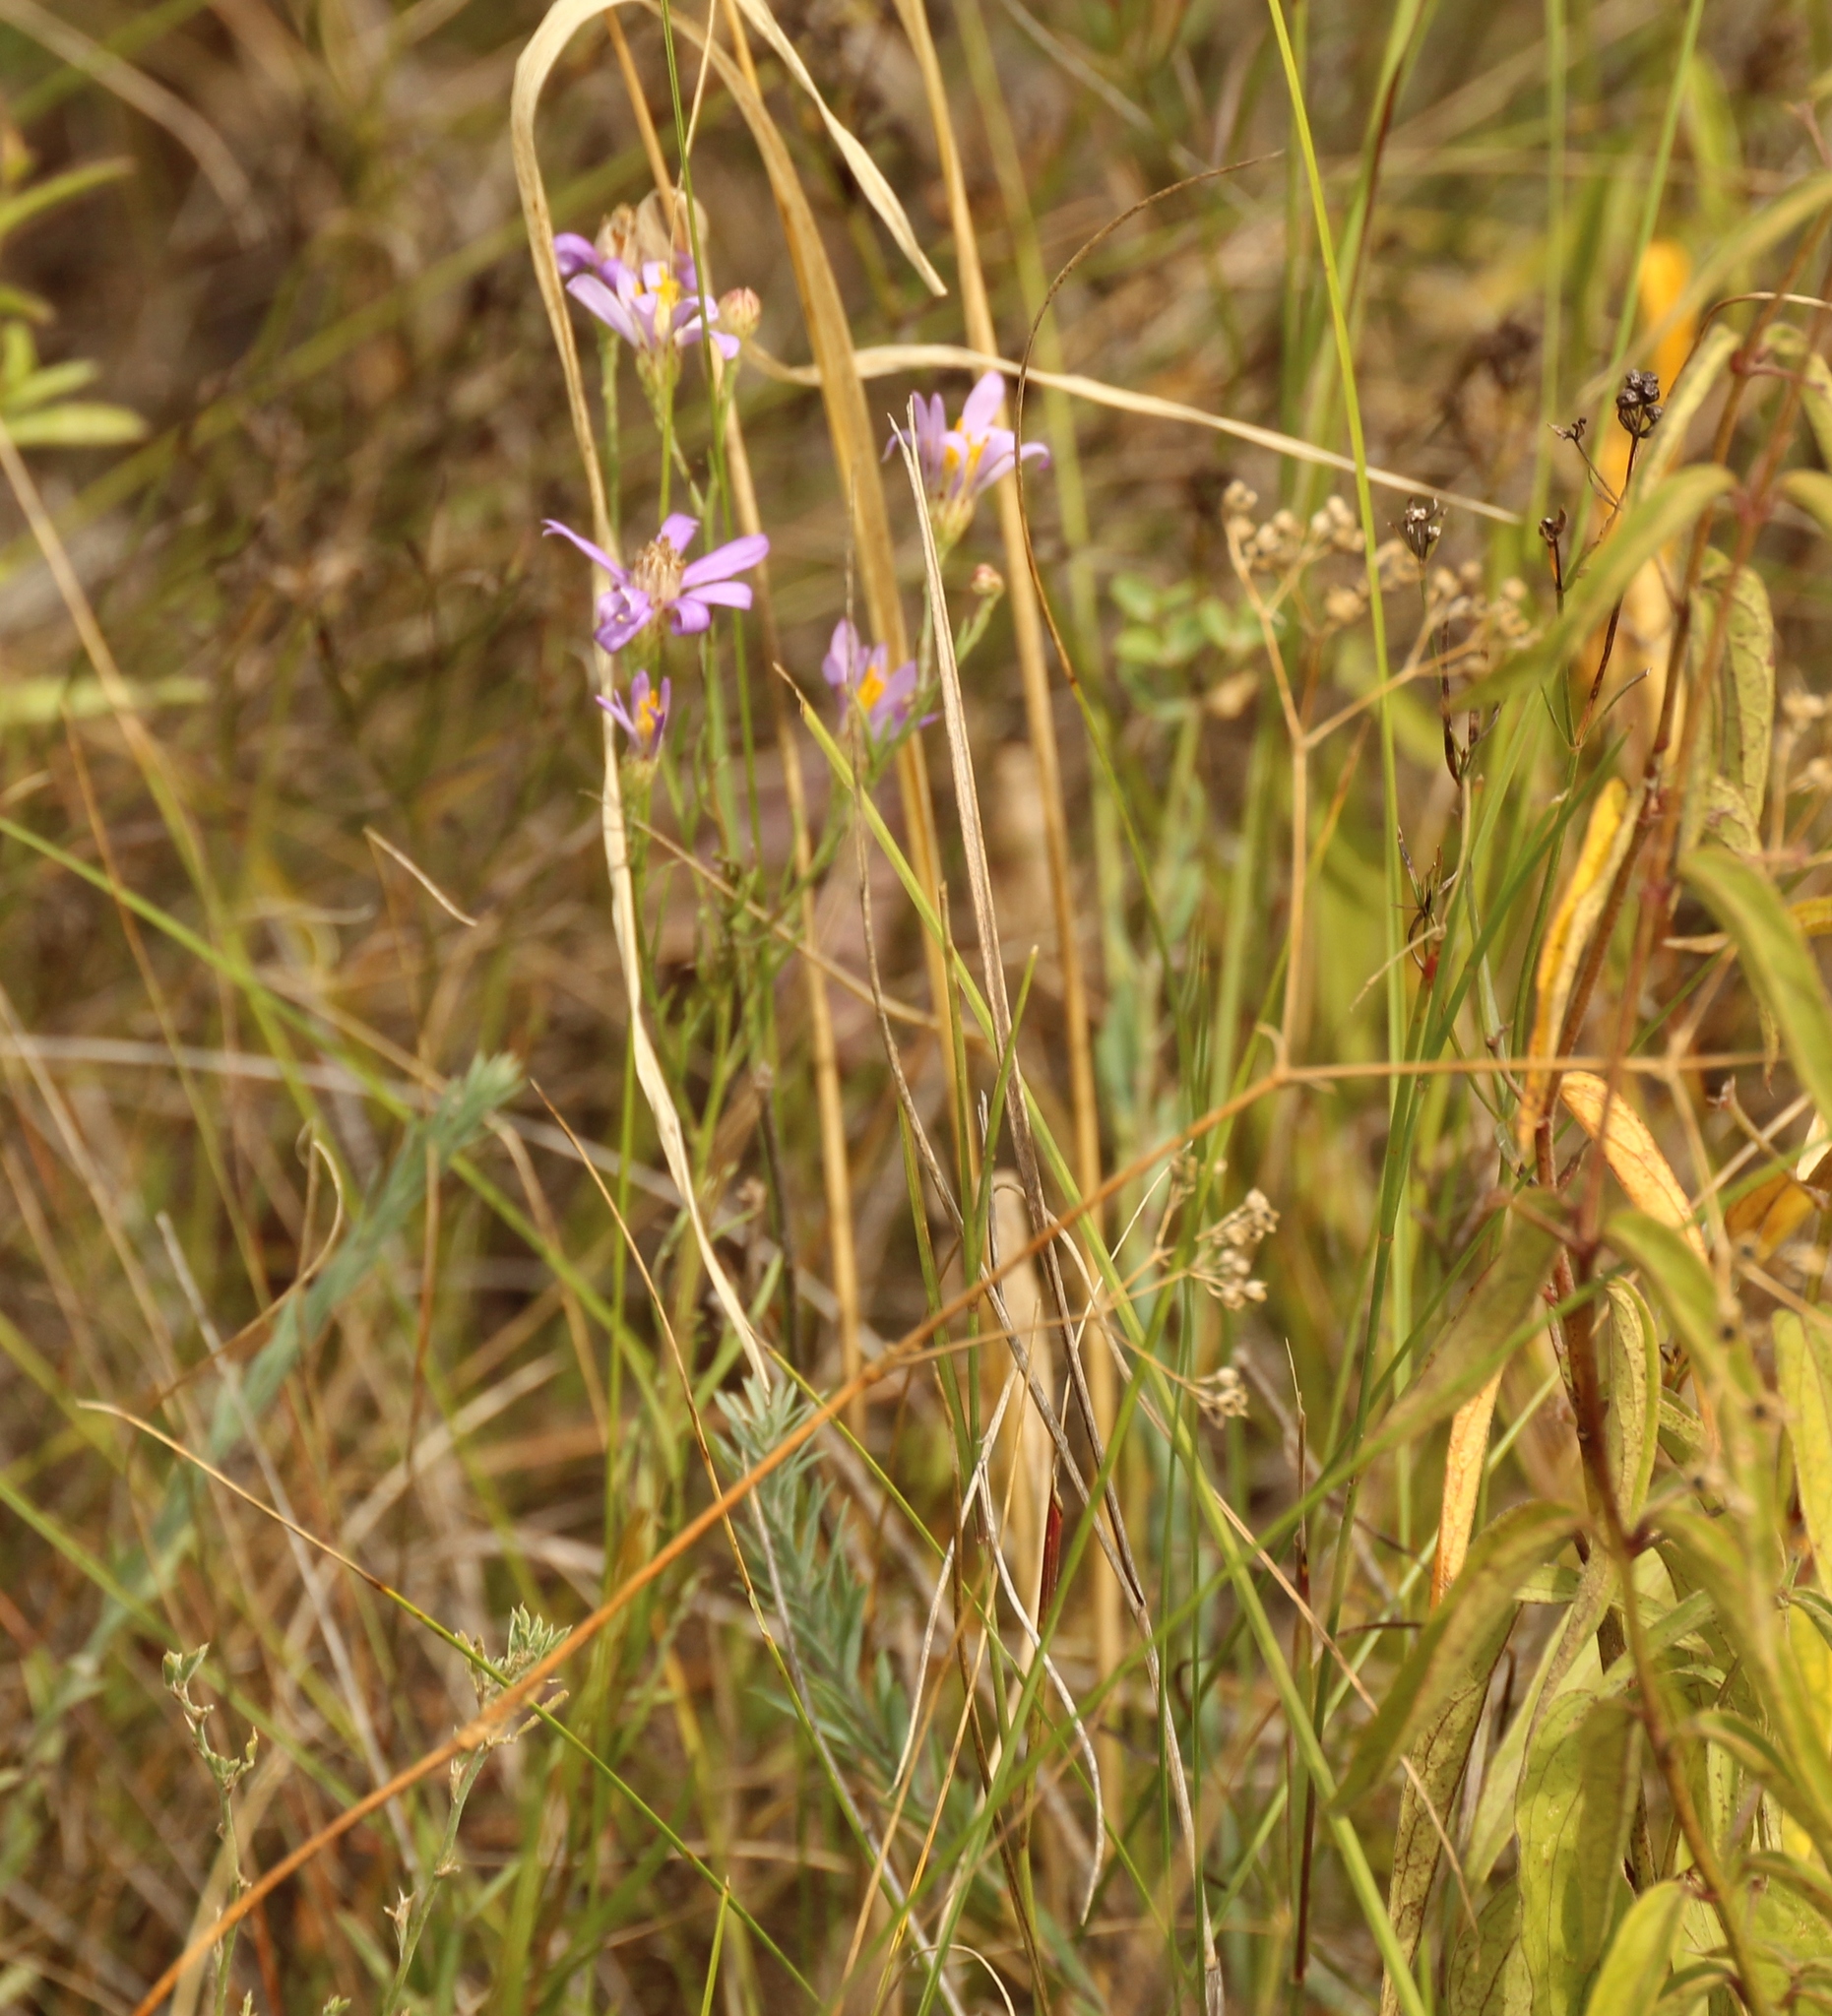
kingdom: Plantae
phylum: Tracheophyta
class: Magnoliopsida
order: Asterales
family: Asteraceae
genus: Galatella
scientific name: Galatella angustissima
